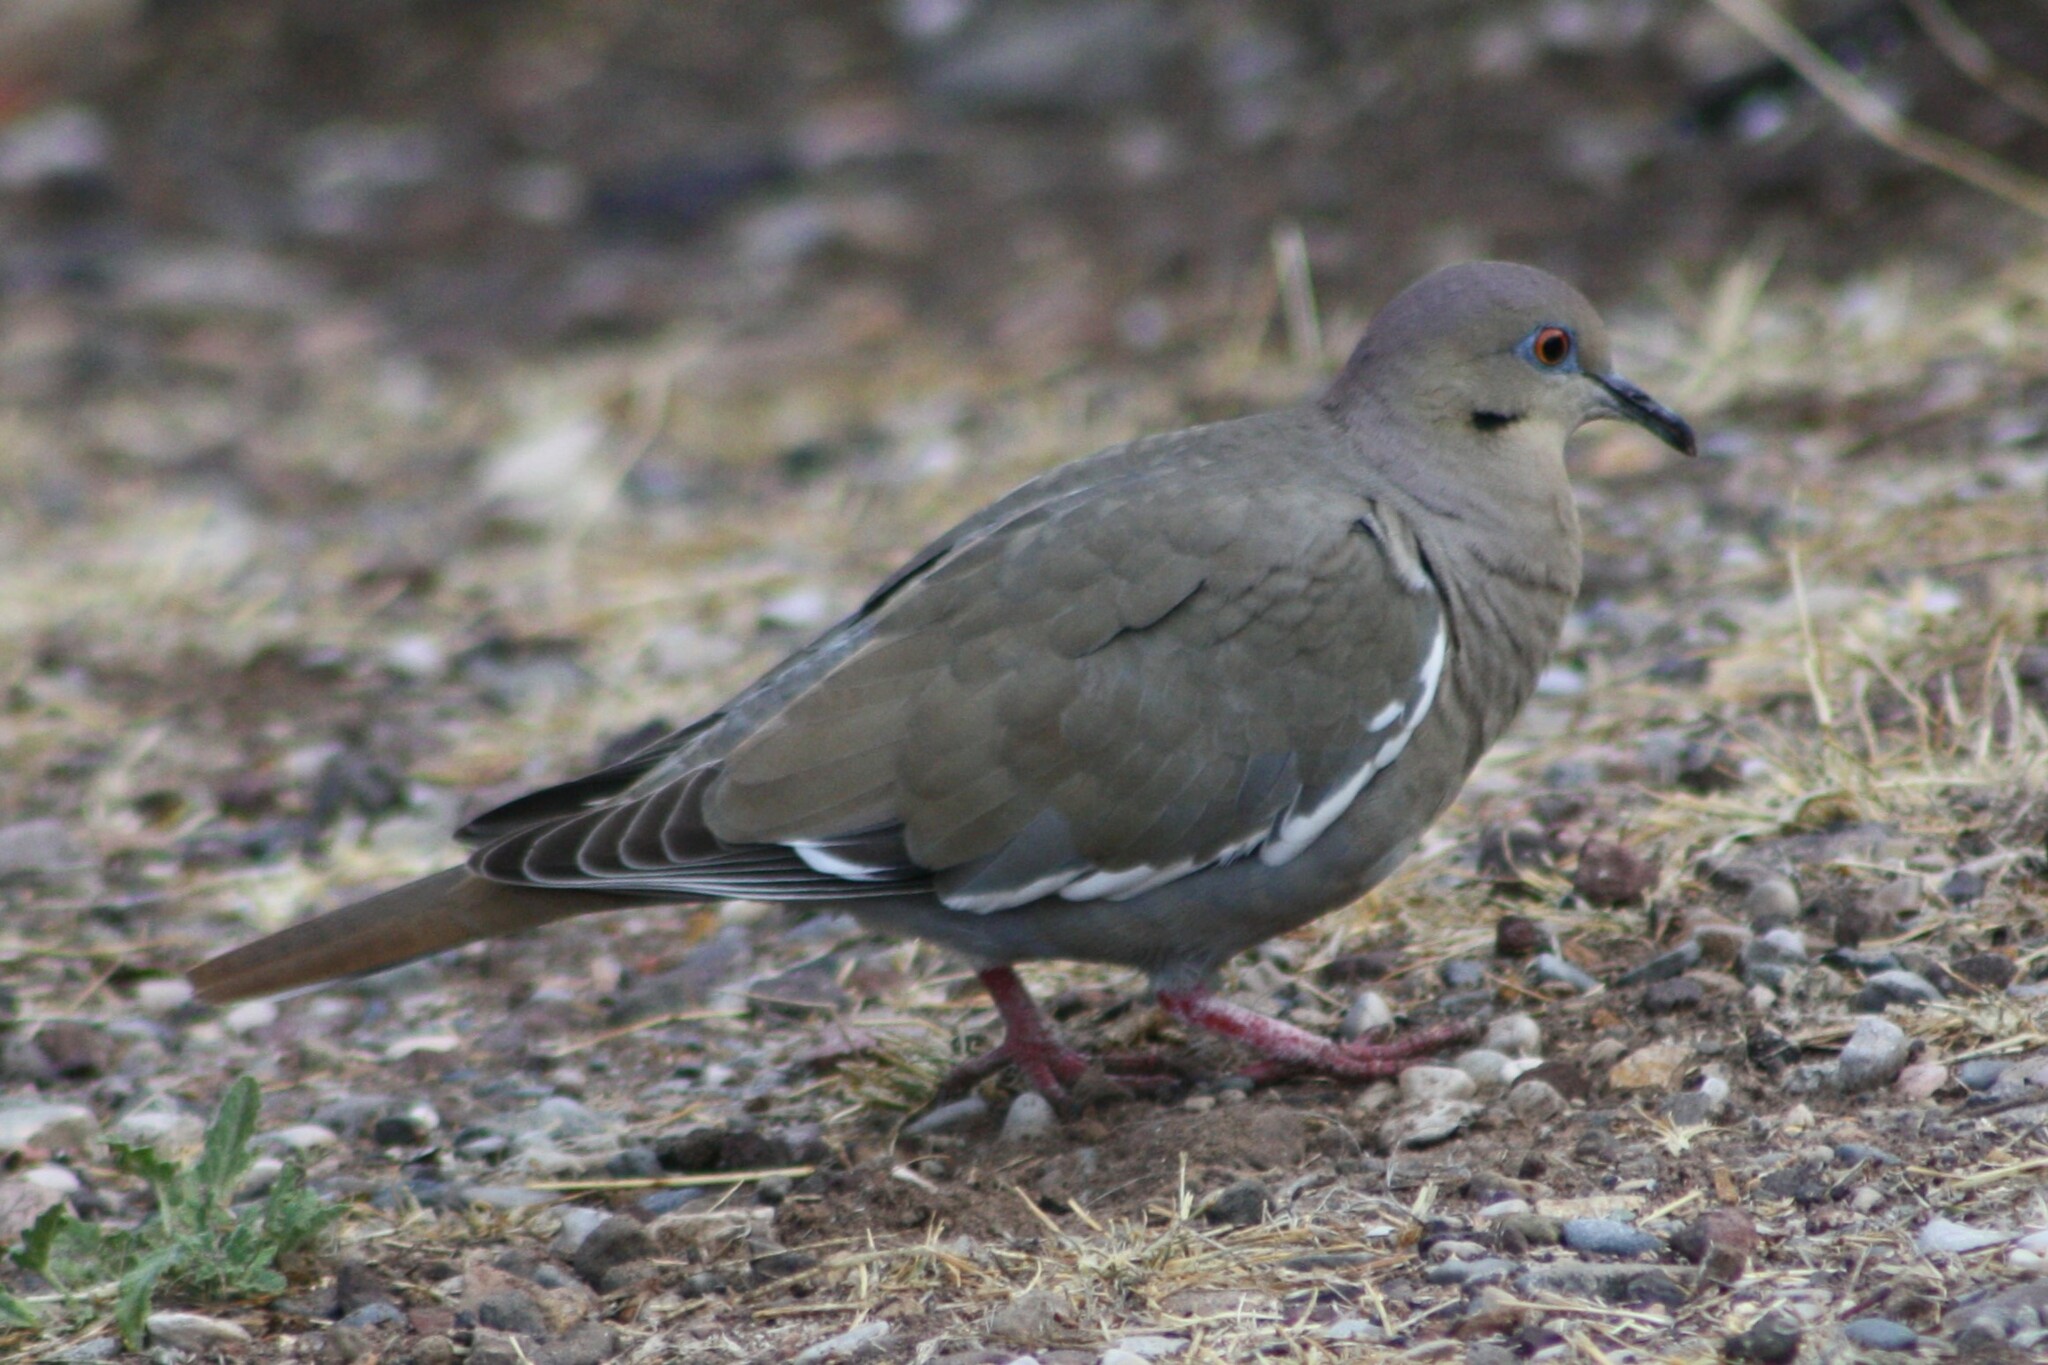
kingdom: Animalia
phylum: Chordata
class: Aves
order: Columbiformes
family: Columbidae
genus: Zenaida
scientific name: Zenaida asiatica
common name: White-winged dove
